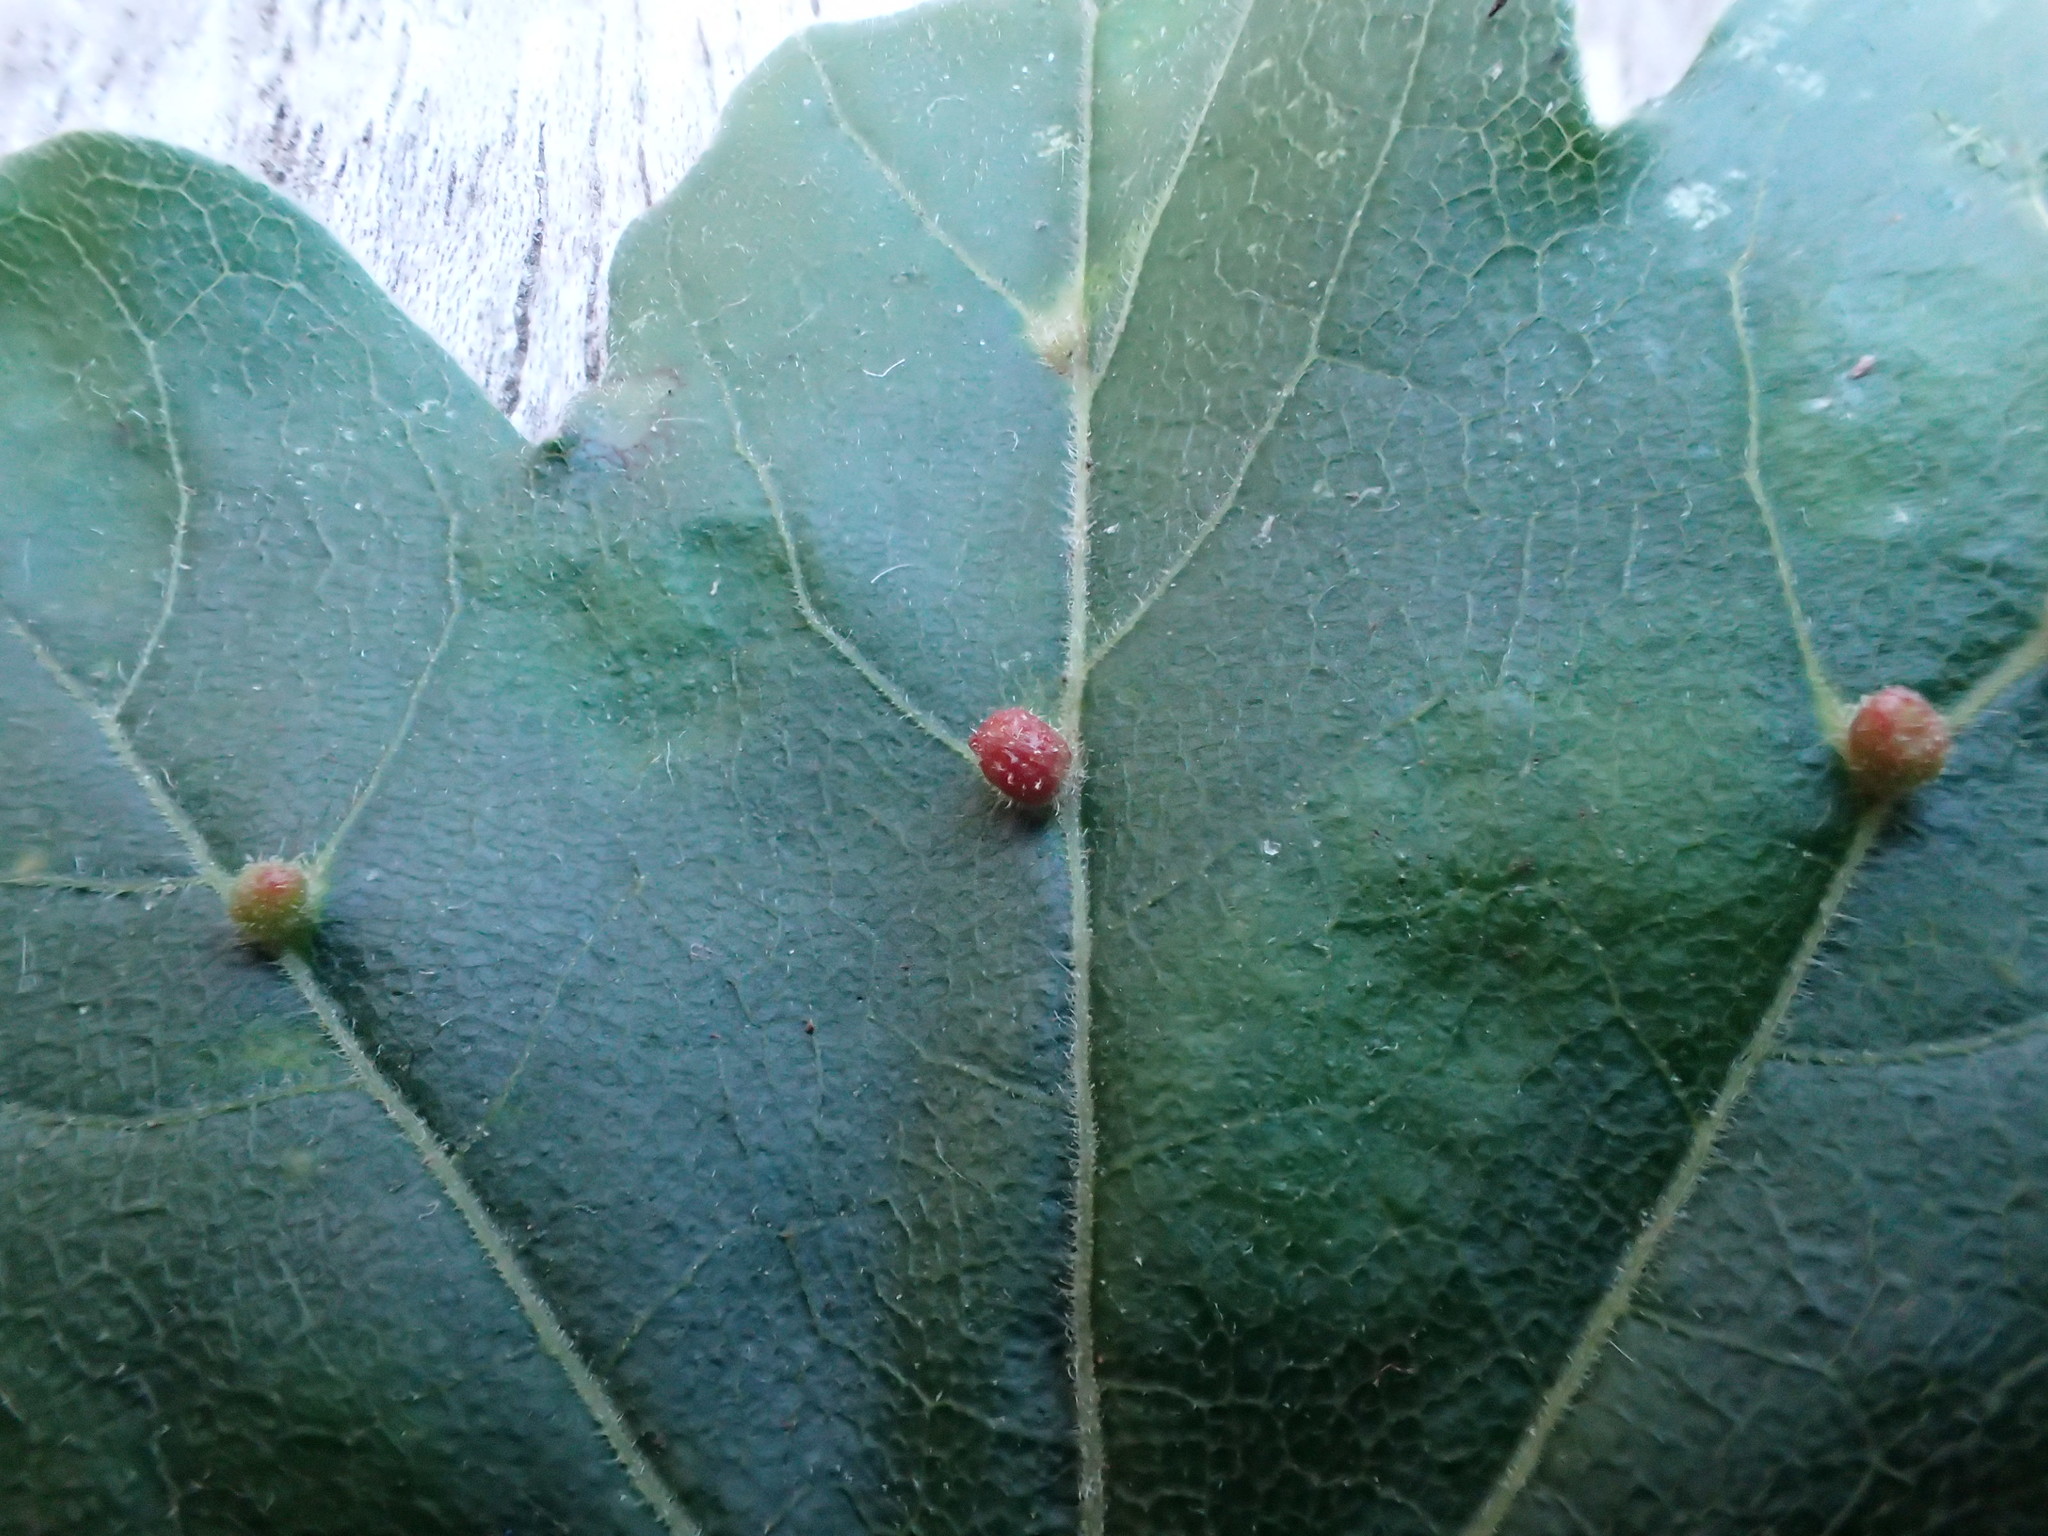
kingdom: Animalia
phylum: Arthropoda
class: Arachnida
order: Trombidiformes
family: Eriophyidae
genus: Aceria
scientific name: Aceria macrochelus
